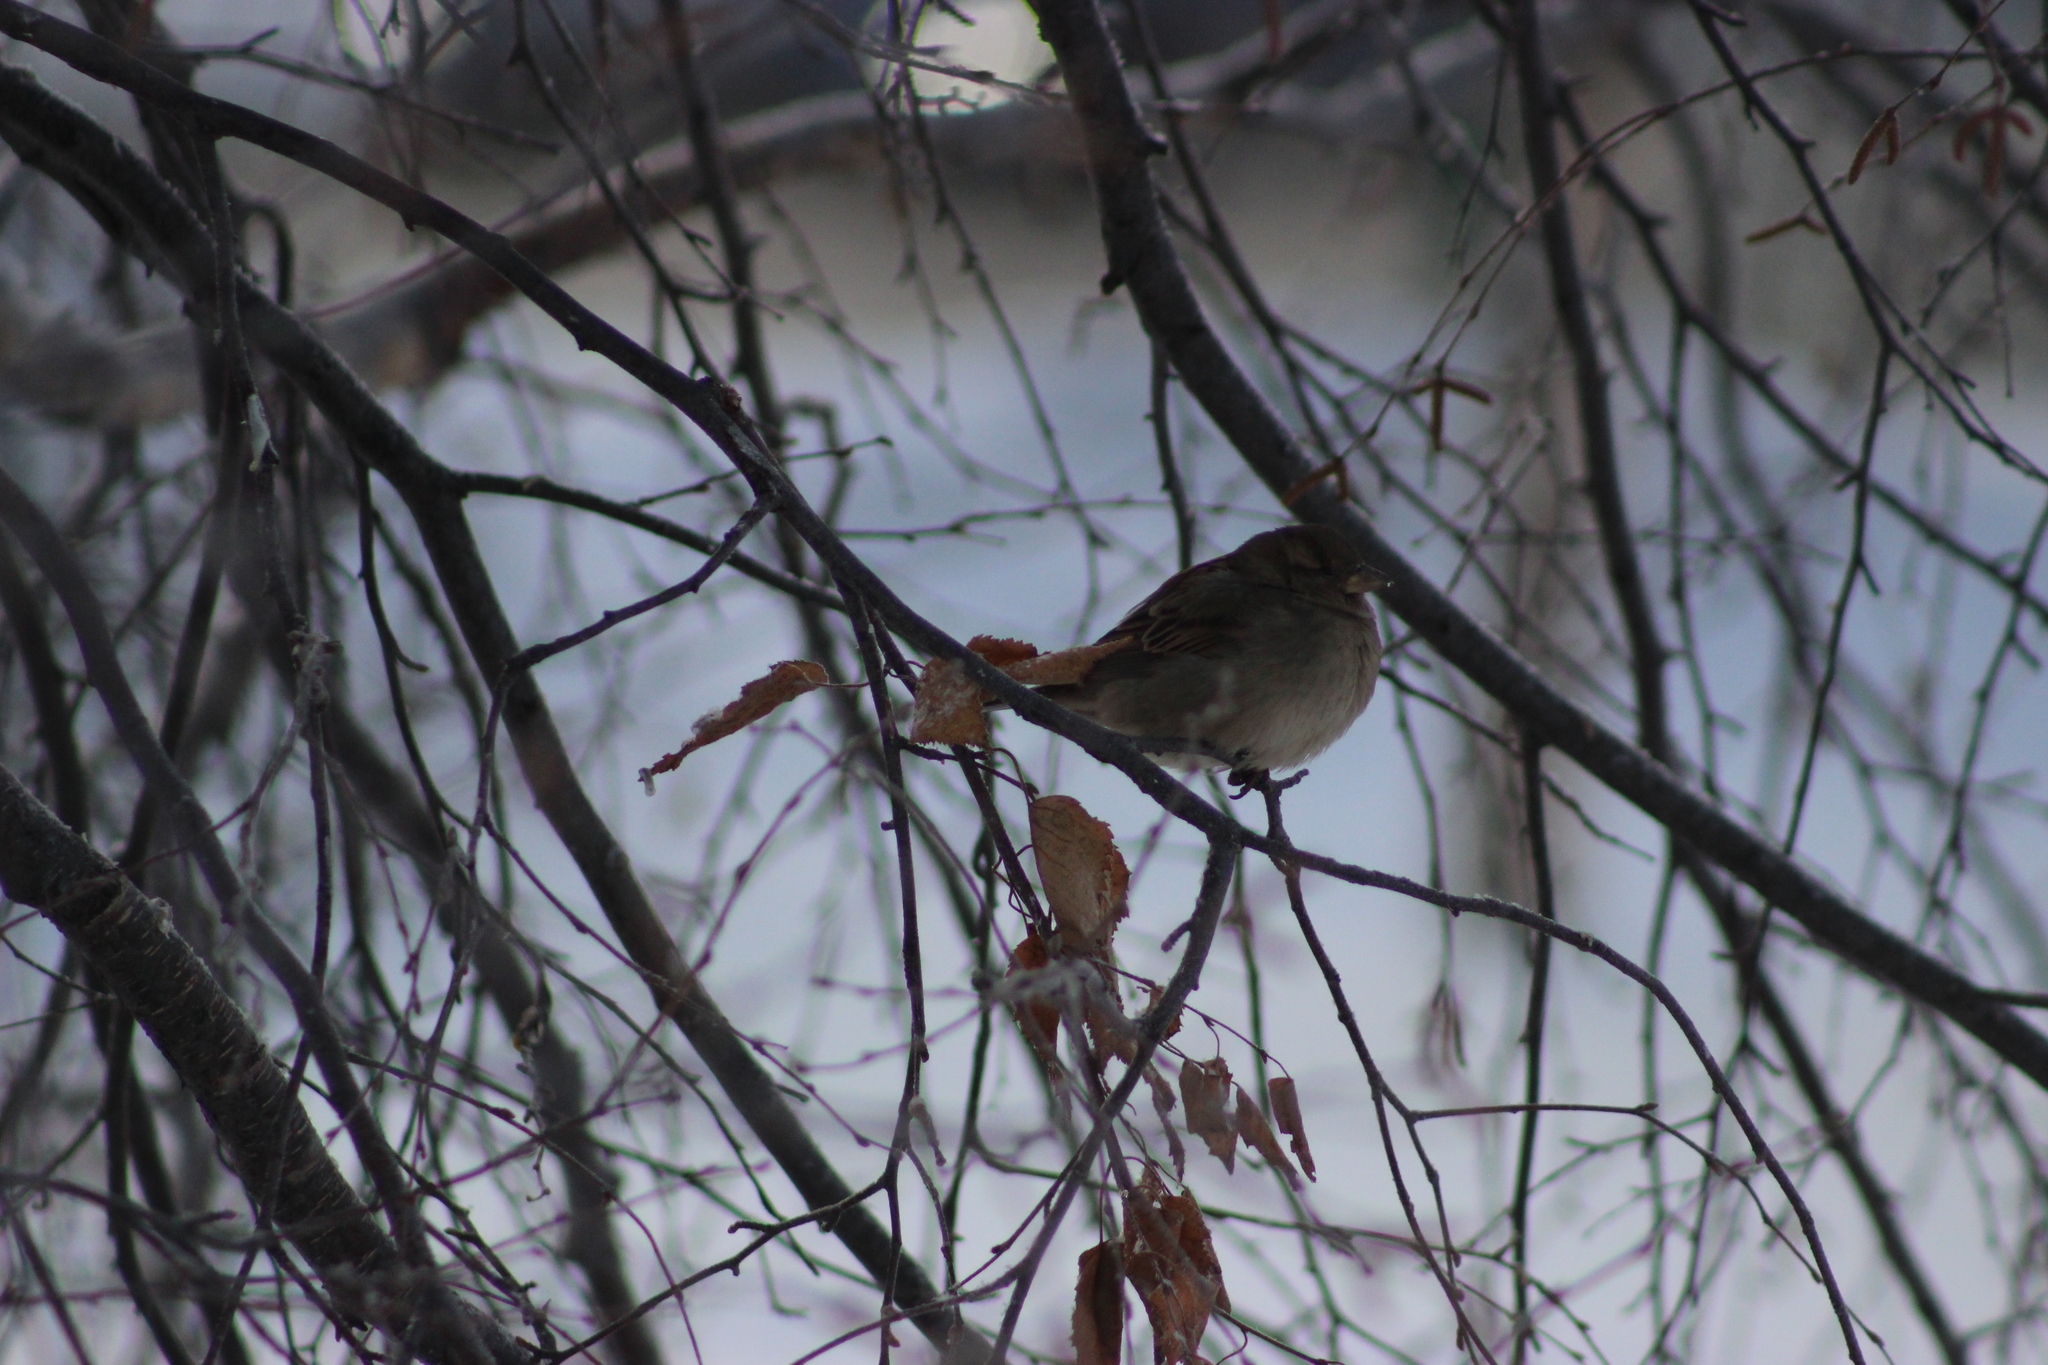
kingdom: Animalia
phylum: Chordata
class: Aves
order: Passeriformes
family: Passeridae
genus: Passer
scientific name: Passer domesticus
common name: House sparrow
